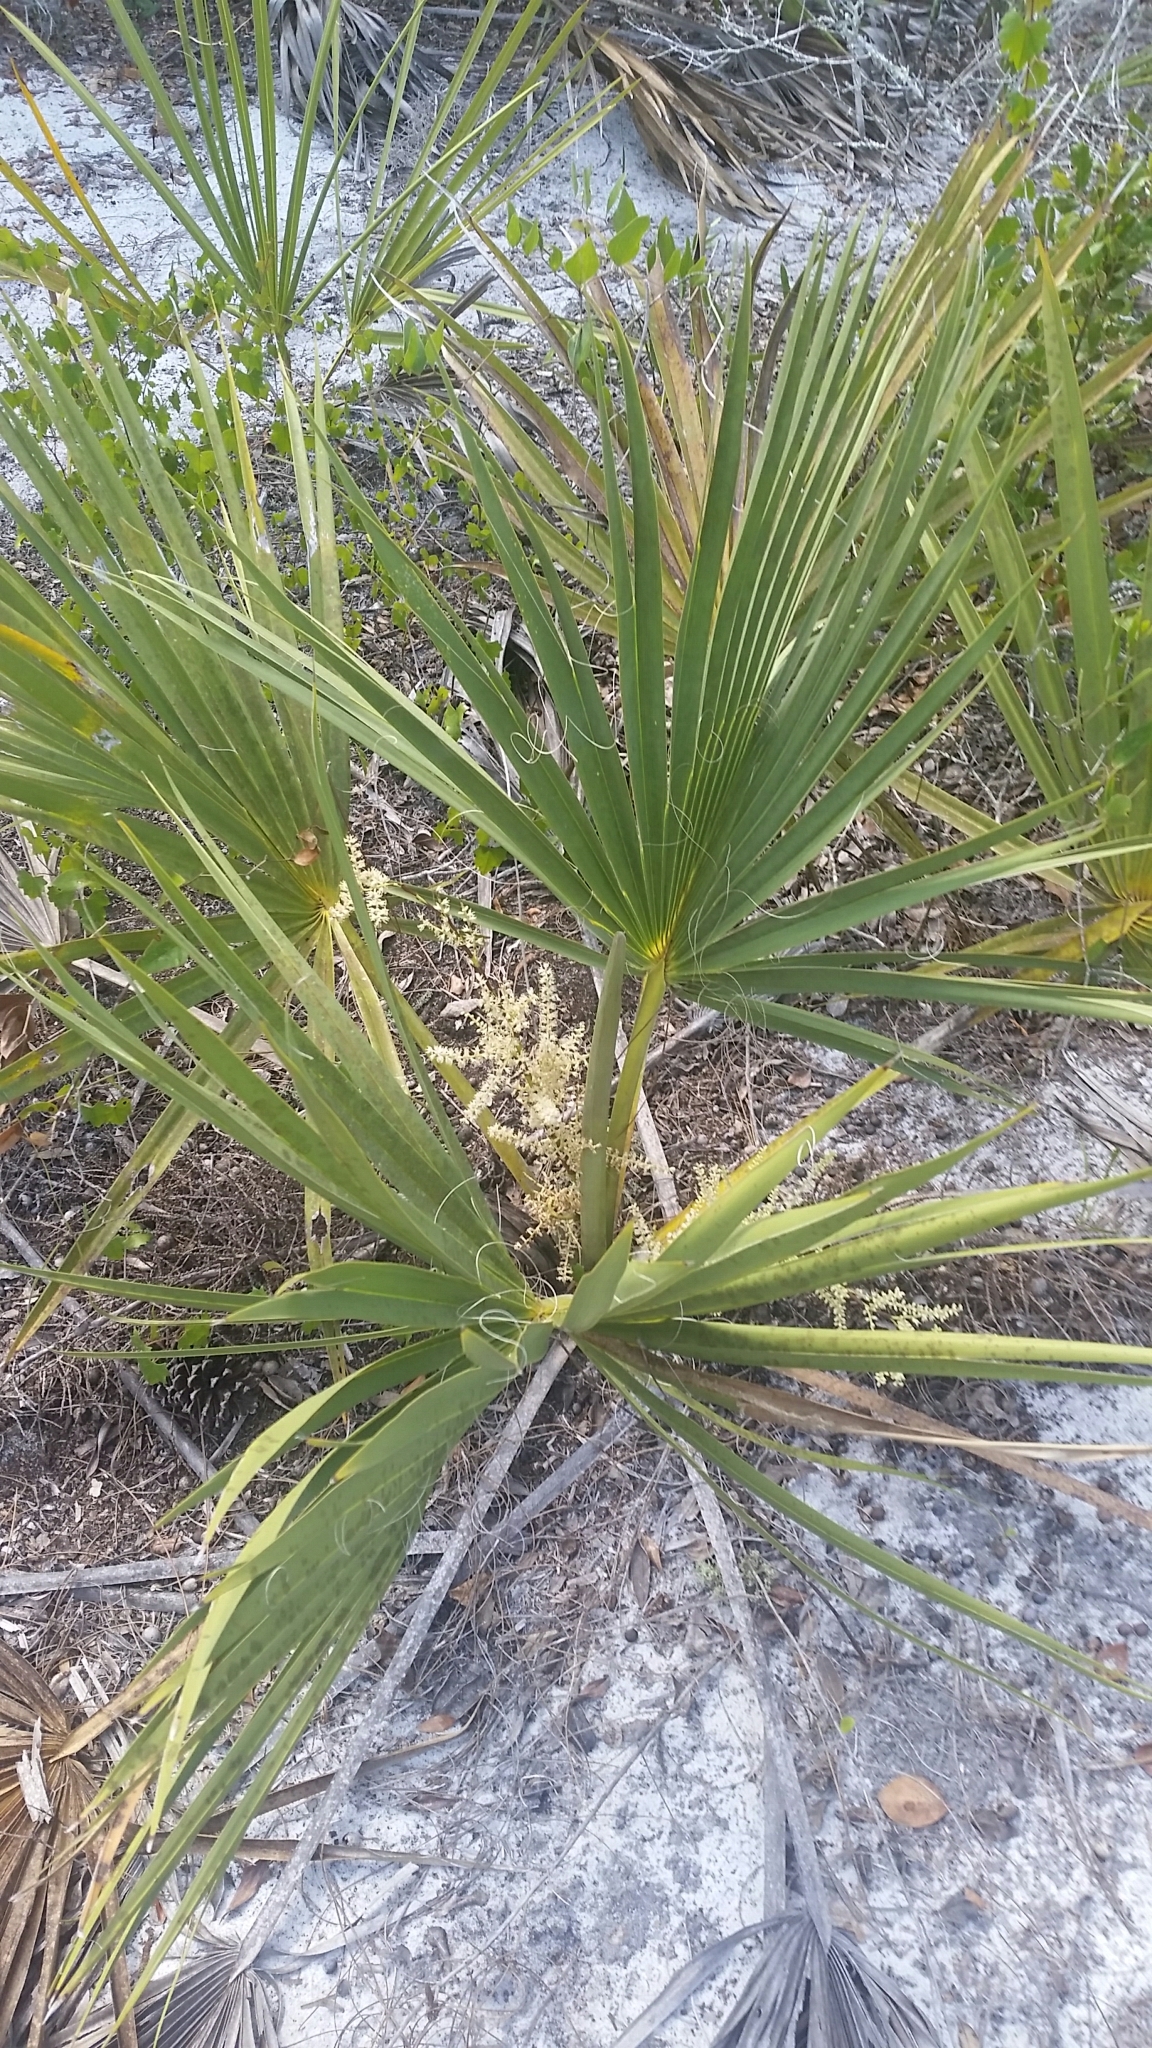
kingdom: Plantae
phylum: Tracheophyta
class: Liliopsida
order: Arecales
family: Arecaceae
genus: Sabal
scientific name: Sabal etonia
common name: Dwarf palmetto
